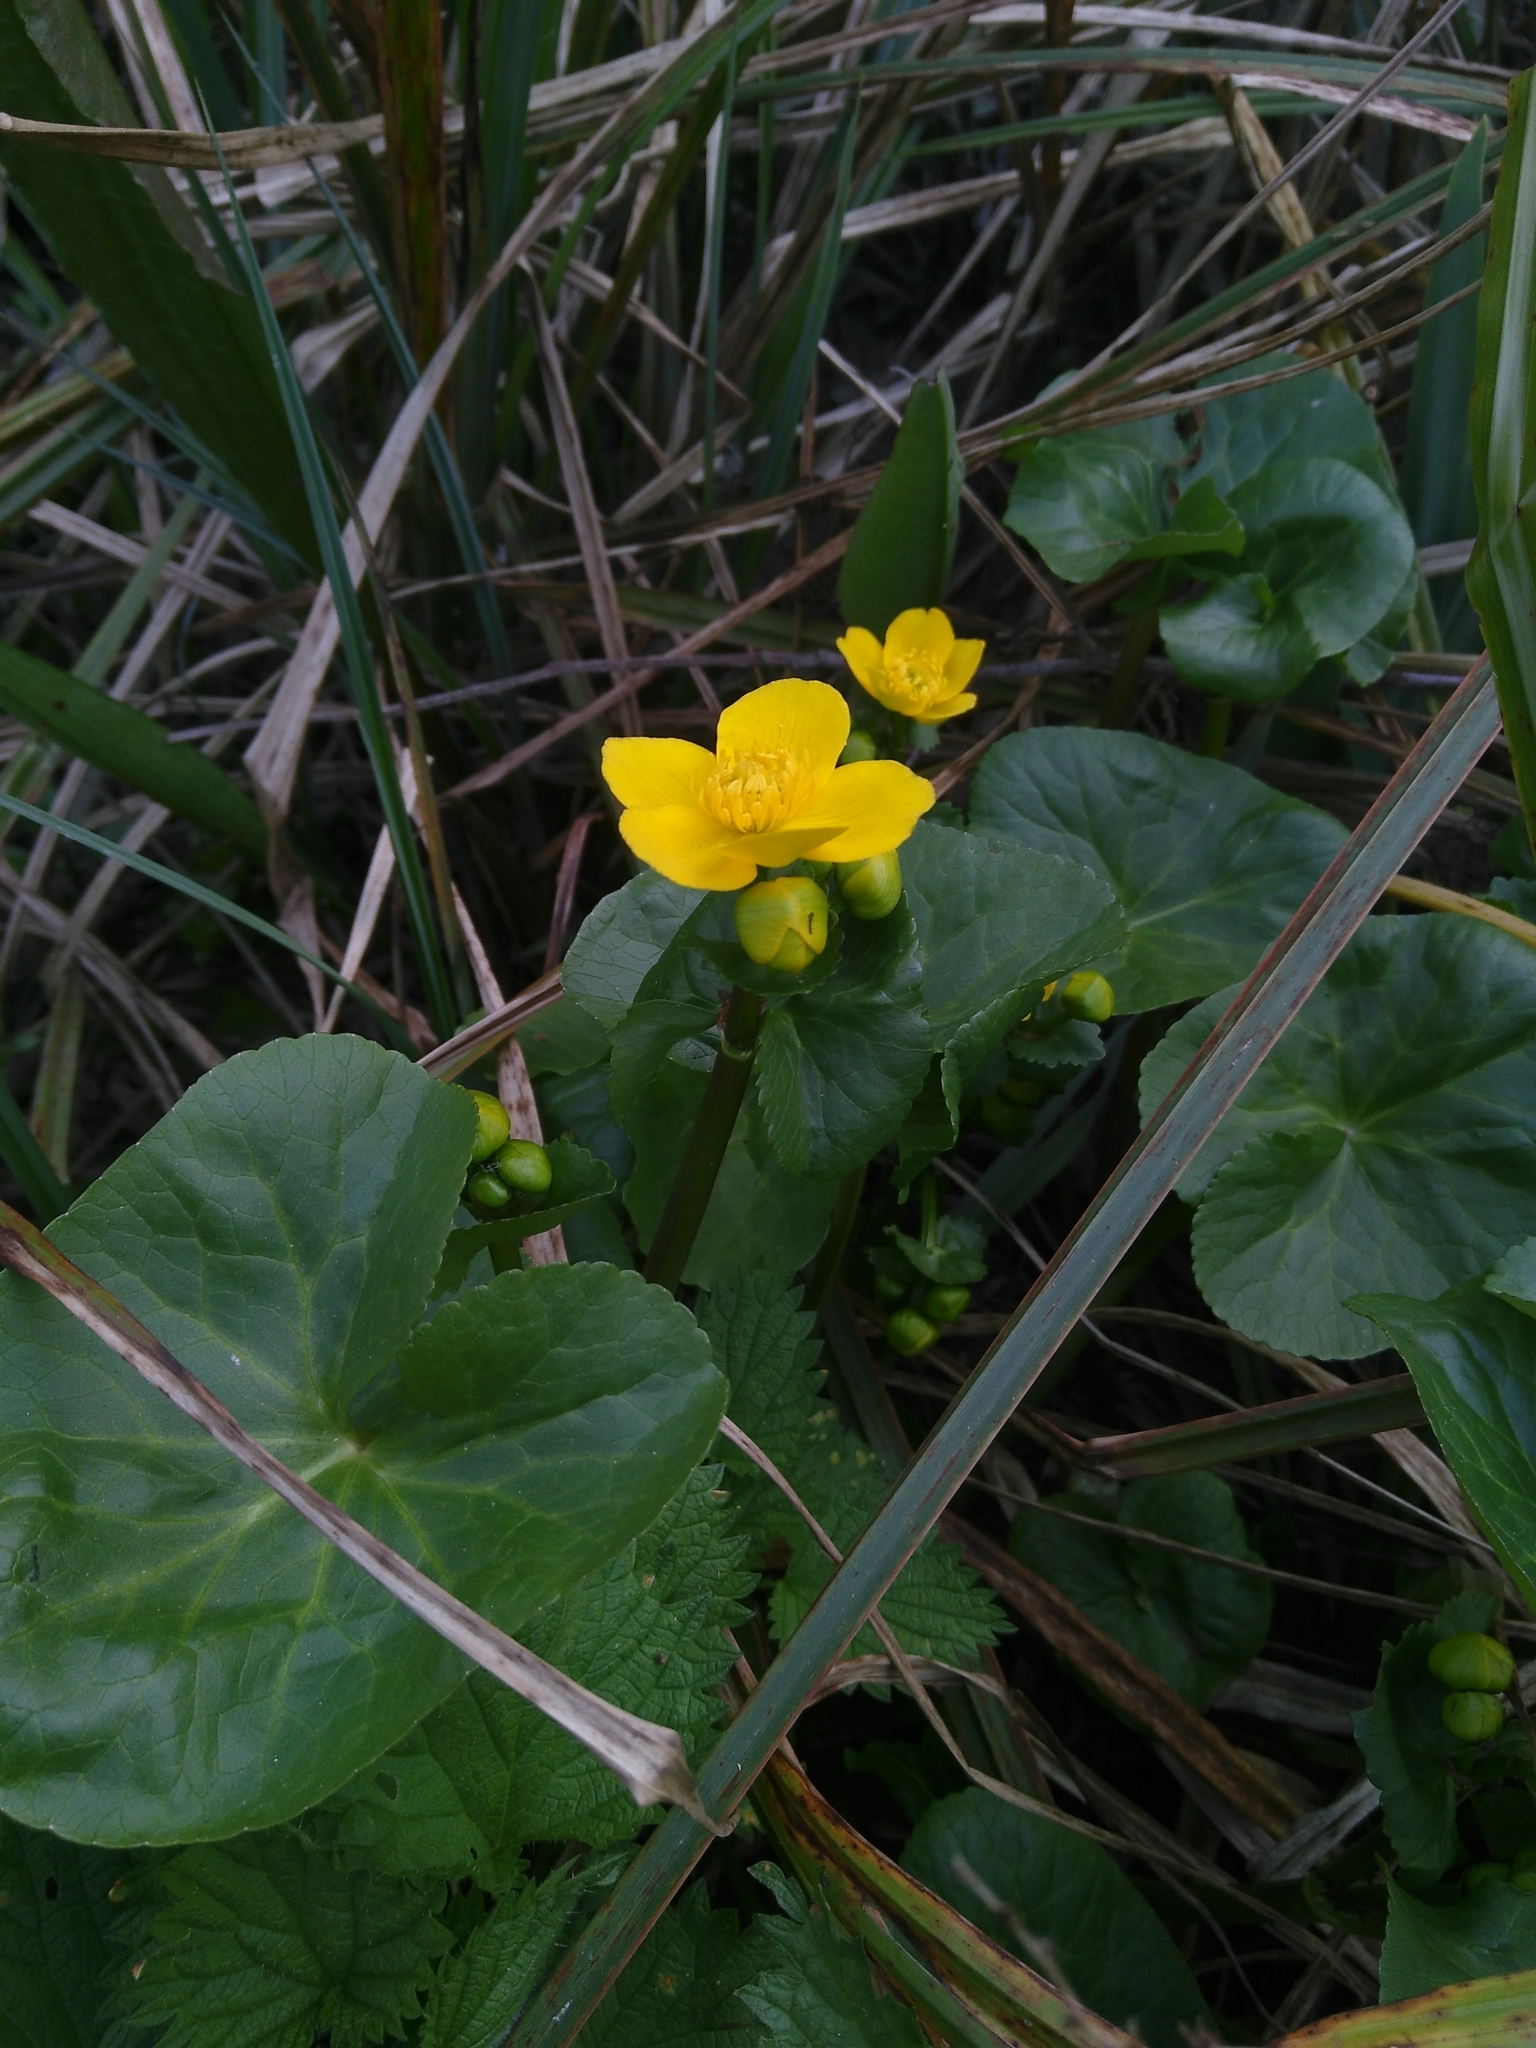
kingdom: Plantae
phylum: Tracheophyta
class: Magnoliopsida
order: Ranunculales
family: Ranunculaceae
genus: Caltha
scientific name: Caltha palustris
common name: Marsh marigold
